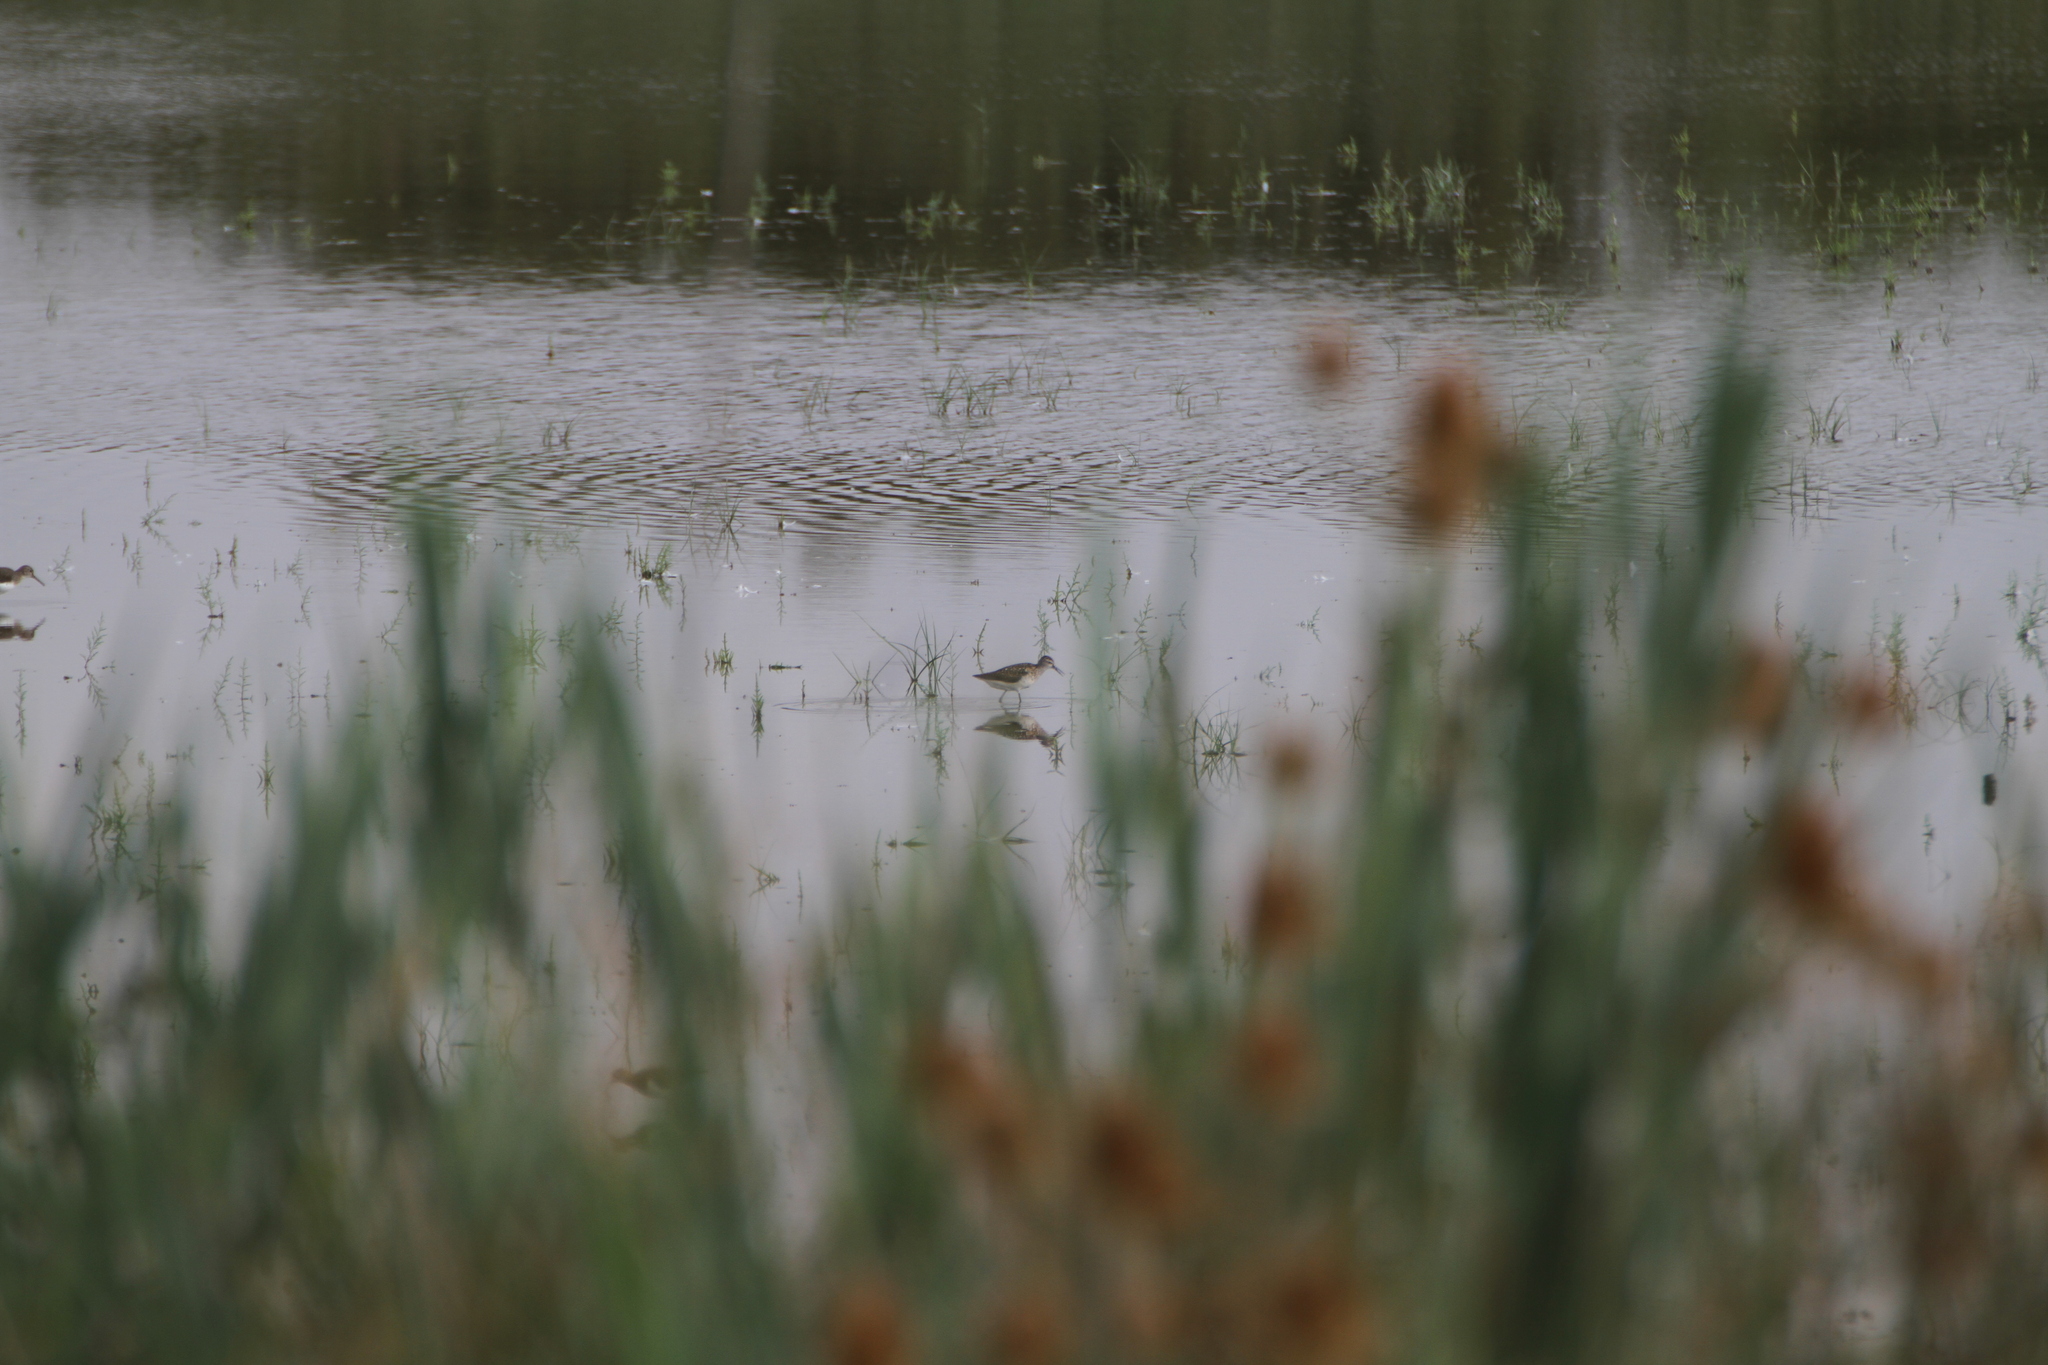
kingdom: Animalia
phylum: Chordata
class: Aves
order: Charadriiformes
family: Scolopacidae
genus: Tringa
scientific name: Tringa glareola
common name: Wood sandpiper
